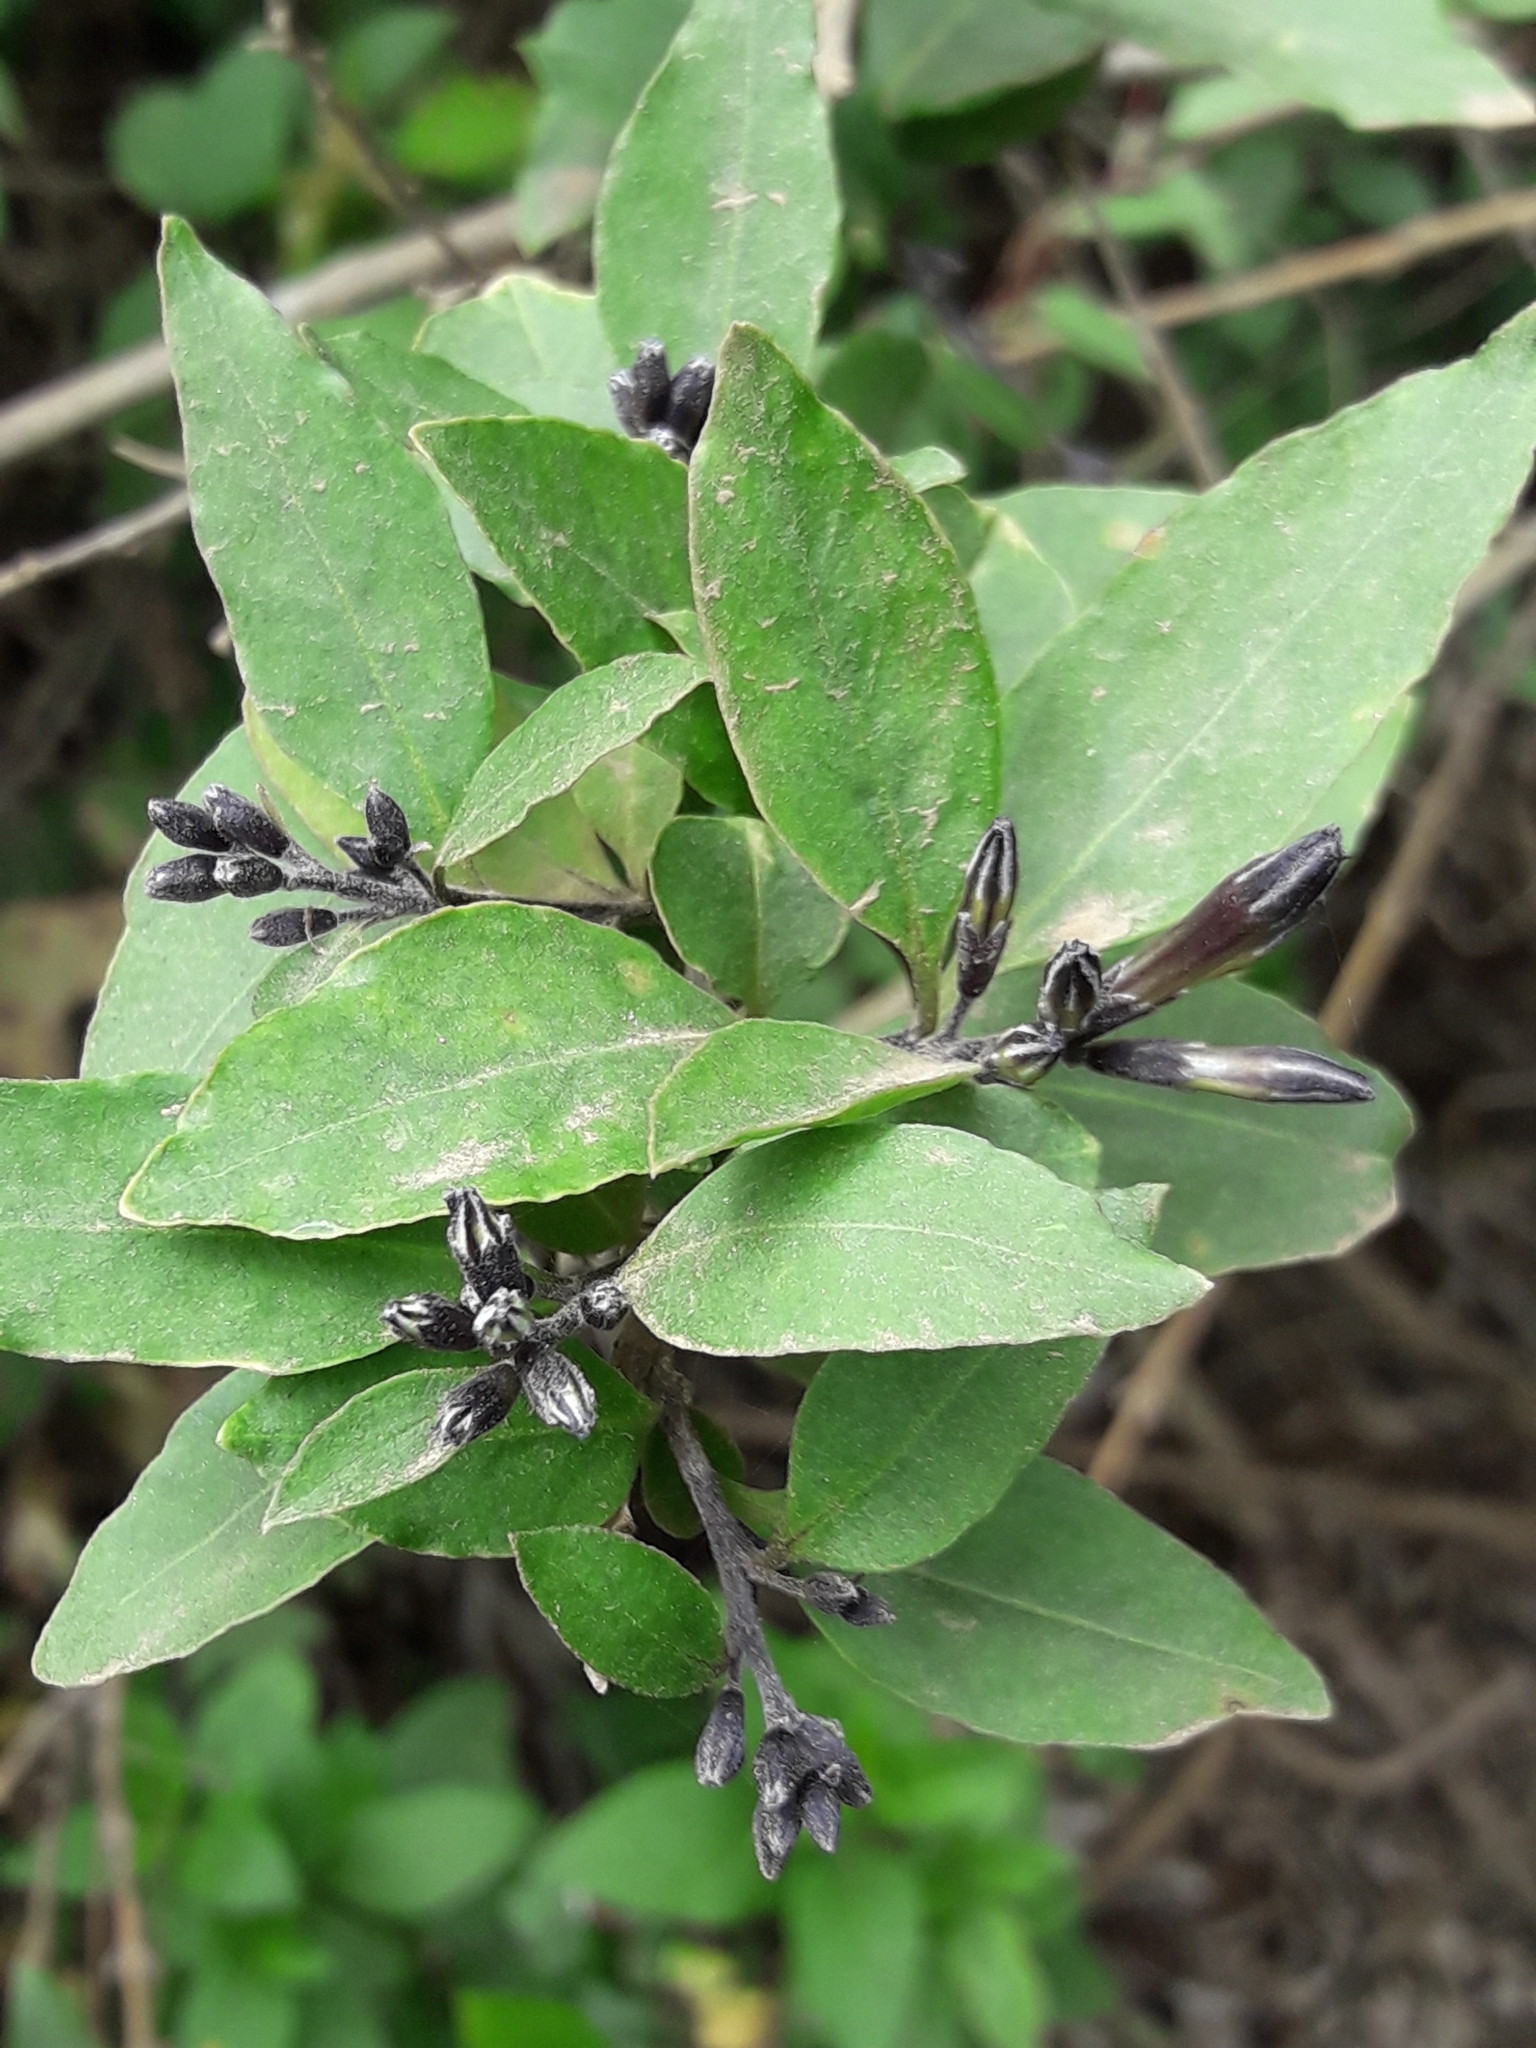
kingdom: Plantae
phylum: Tracheophyta
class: Magnoliopsida
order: Solanales
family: Solanaceae
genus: Cestrum
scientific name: Cestrum parqui
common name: Chilean cestrum
